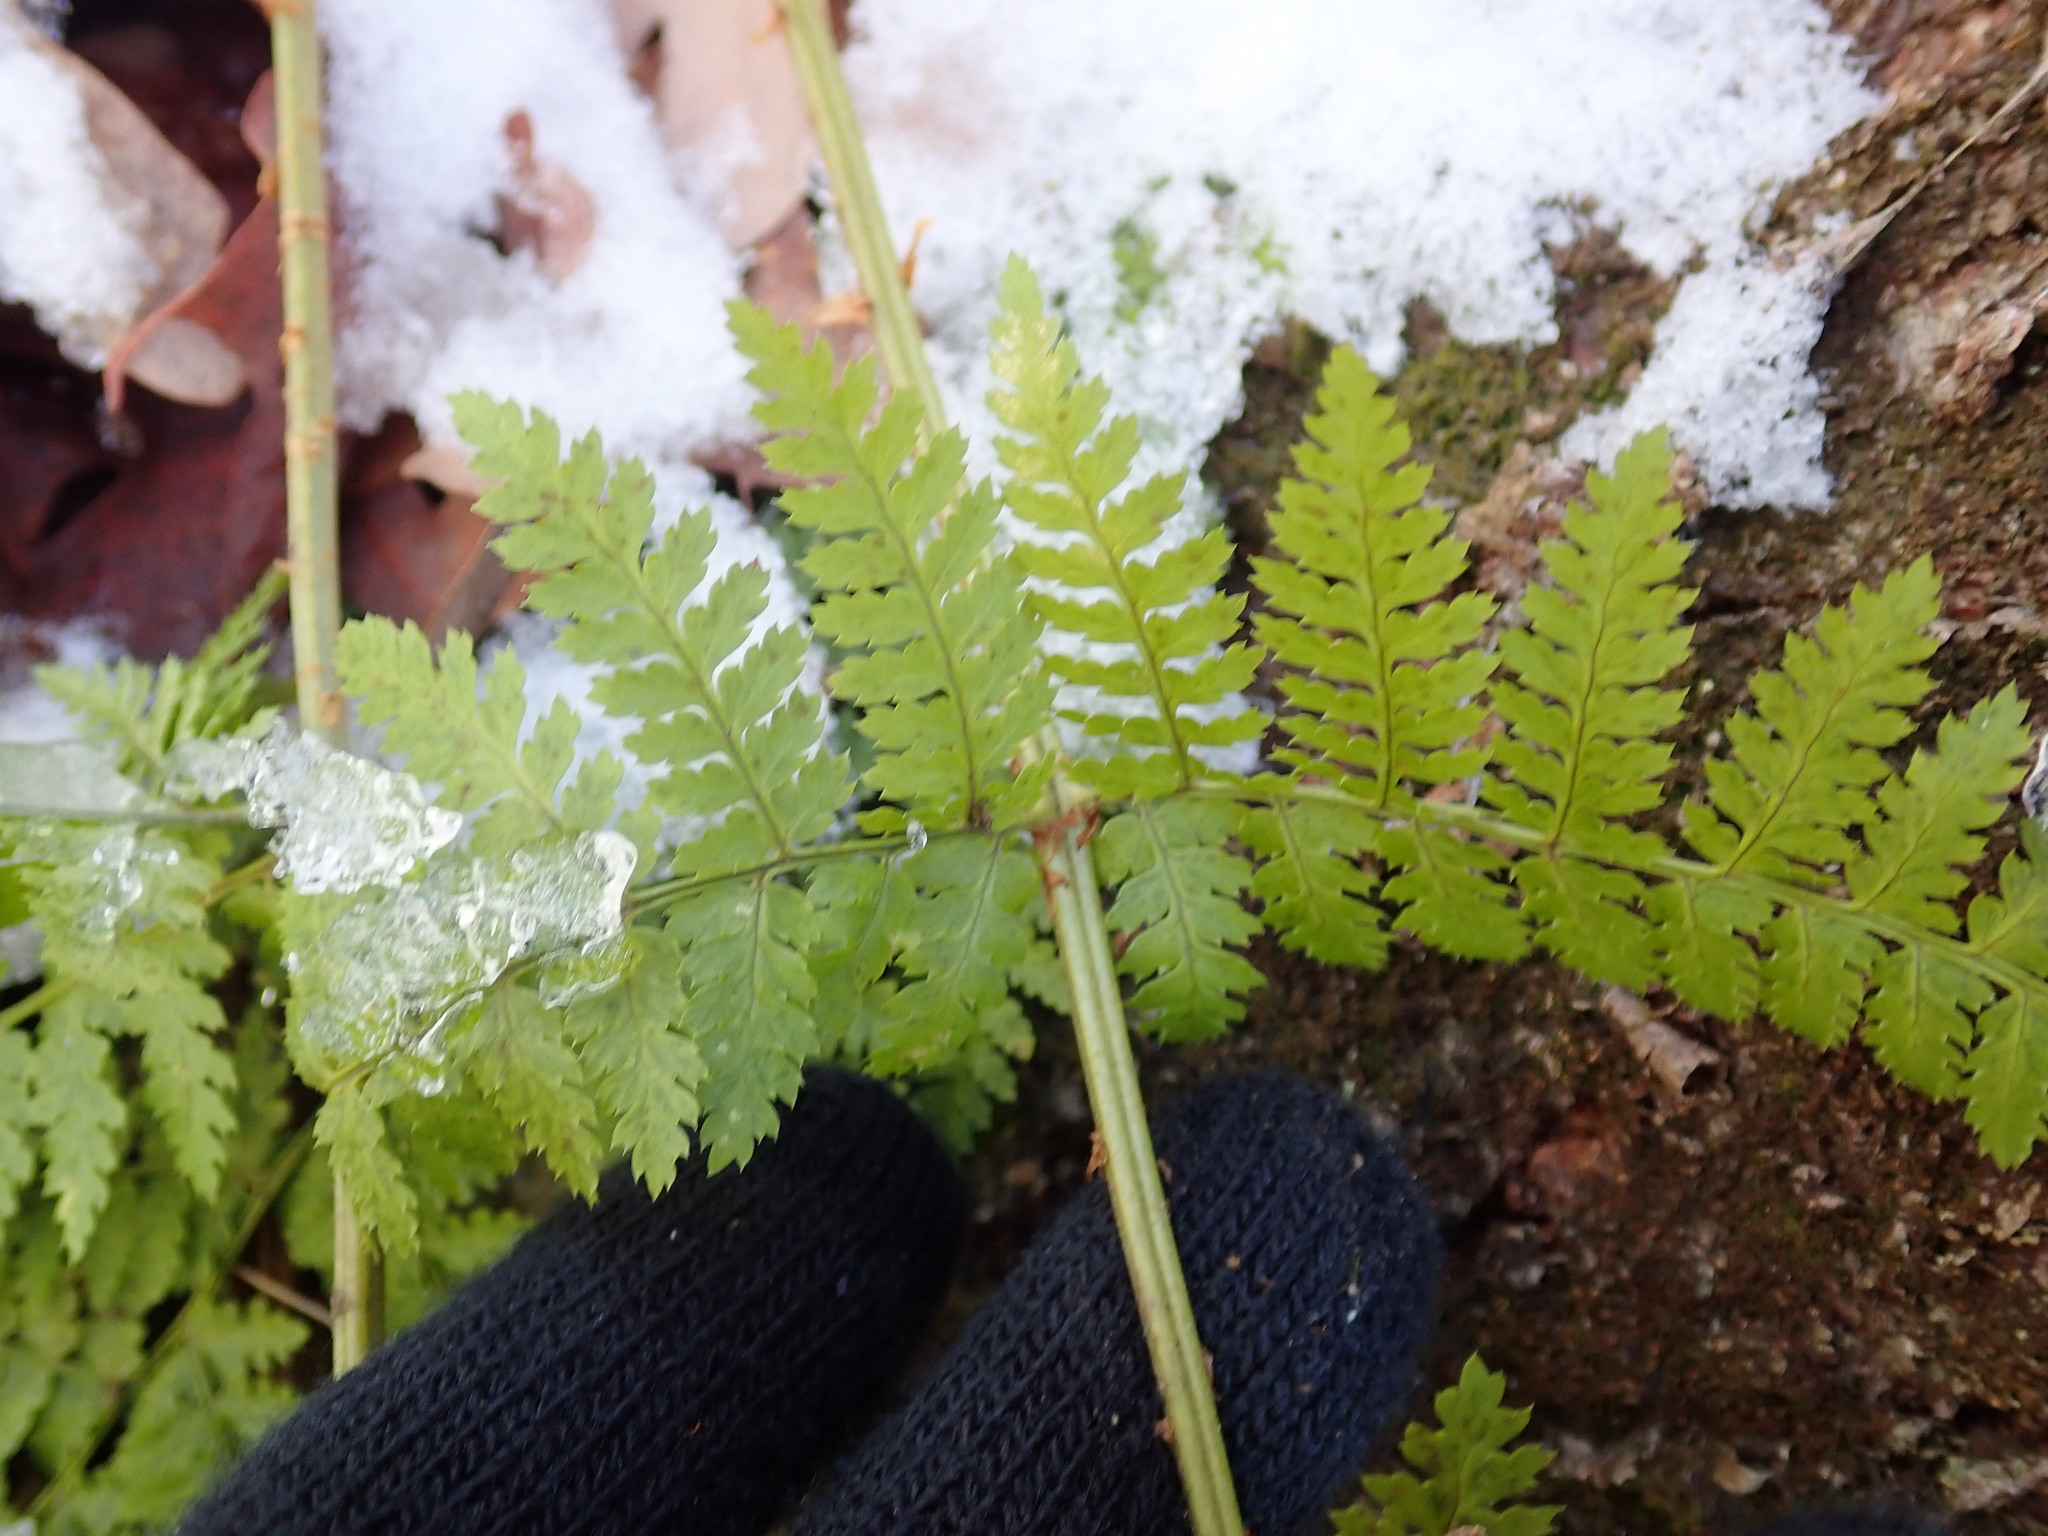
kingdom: Plantae
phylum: Tracheophyta
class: Polypodiopsida
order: Polypodiales
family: Dryopteridaceae
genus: Dryopteris
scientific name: Dryopteris intermedia
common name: Evergreen wood fern
